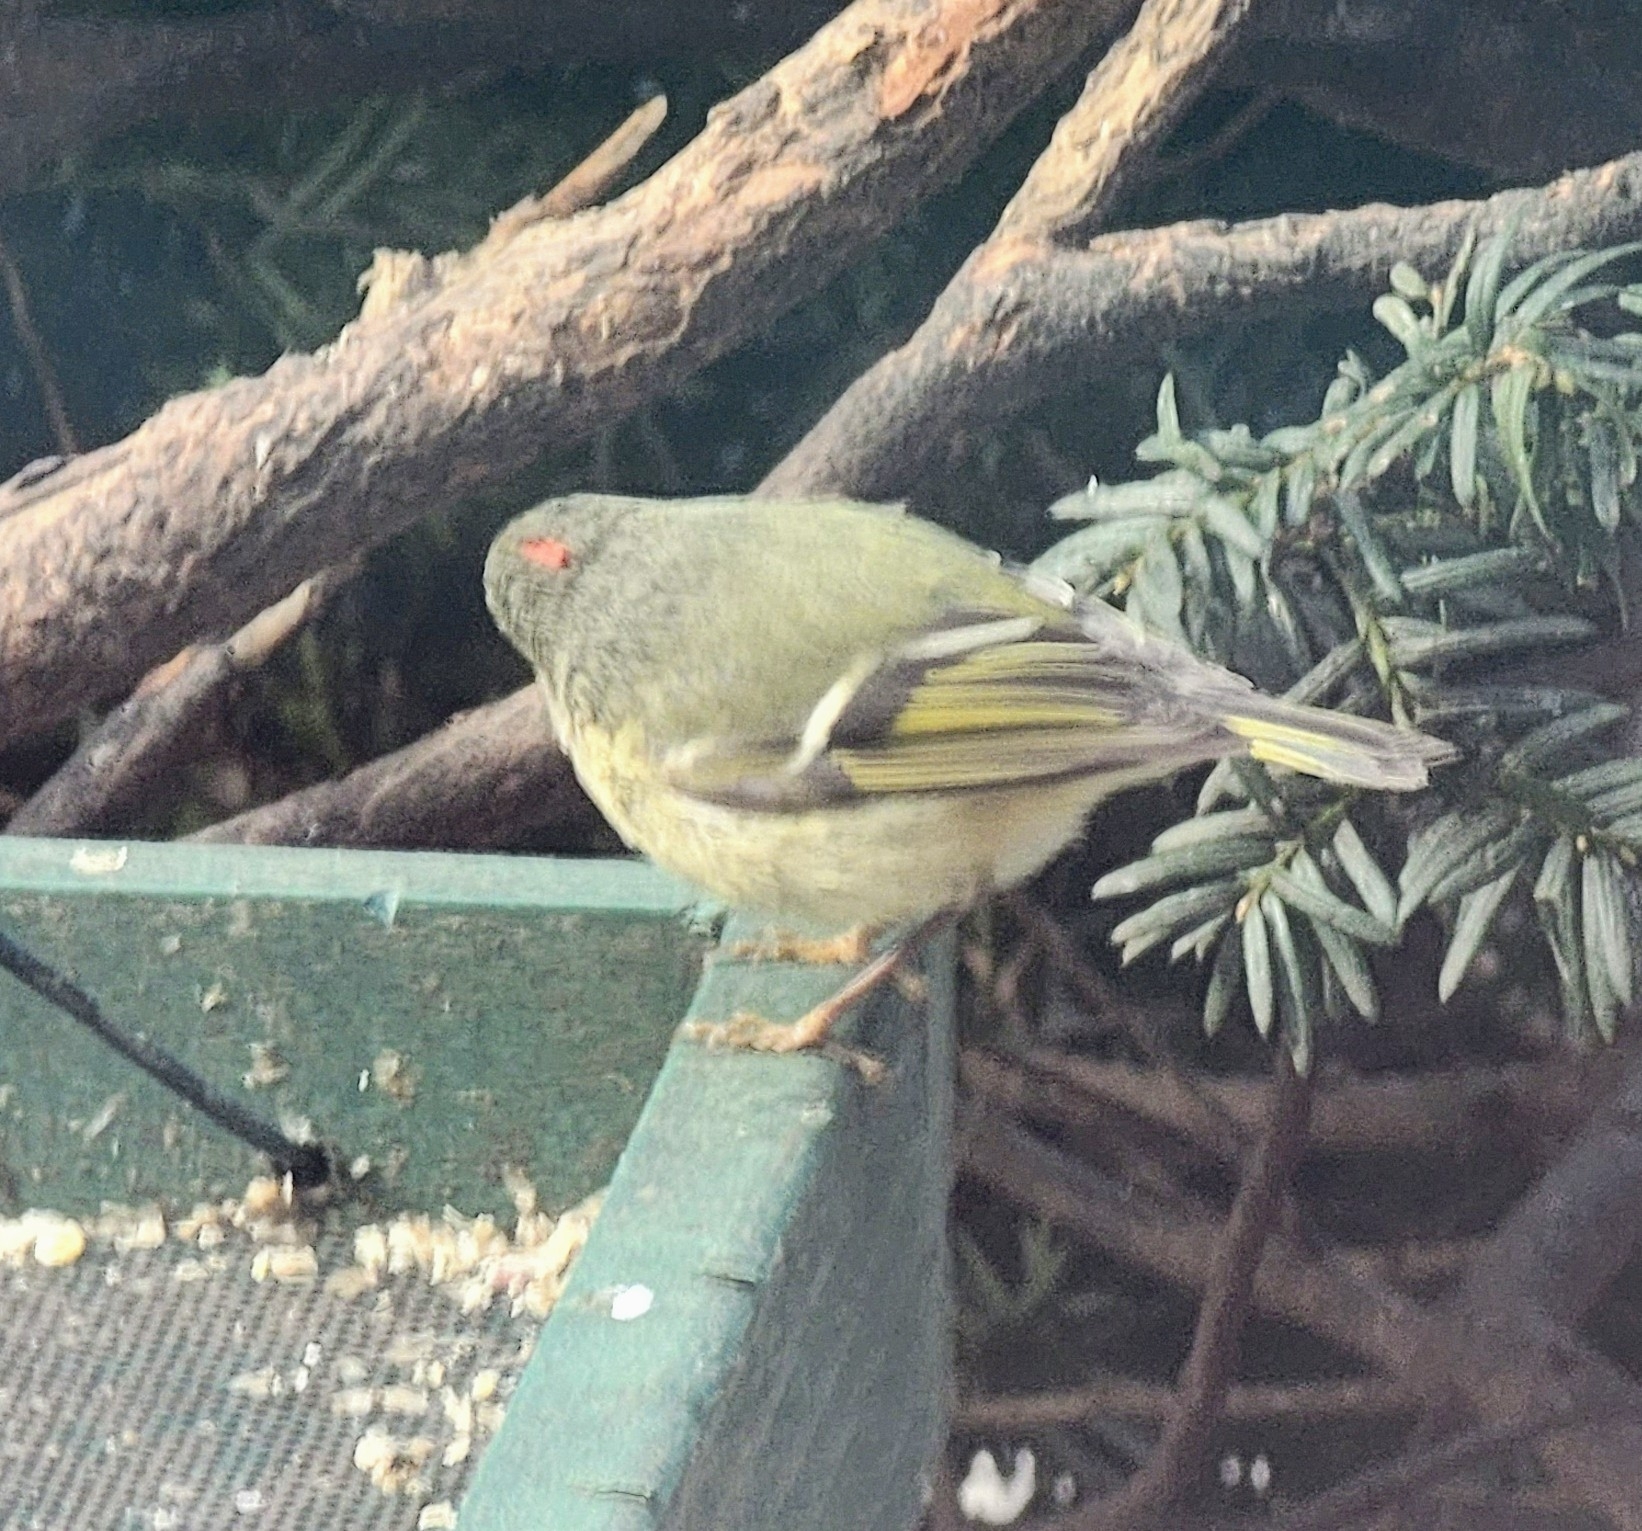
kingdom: Animalia
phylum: Chordata
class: Aves
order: Passeriformes
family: Regulidae
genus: Regulus
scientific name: Regulus calendula
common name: Ruby-crowned kinglet
